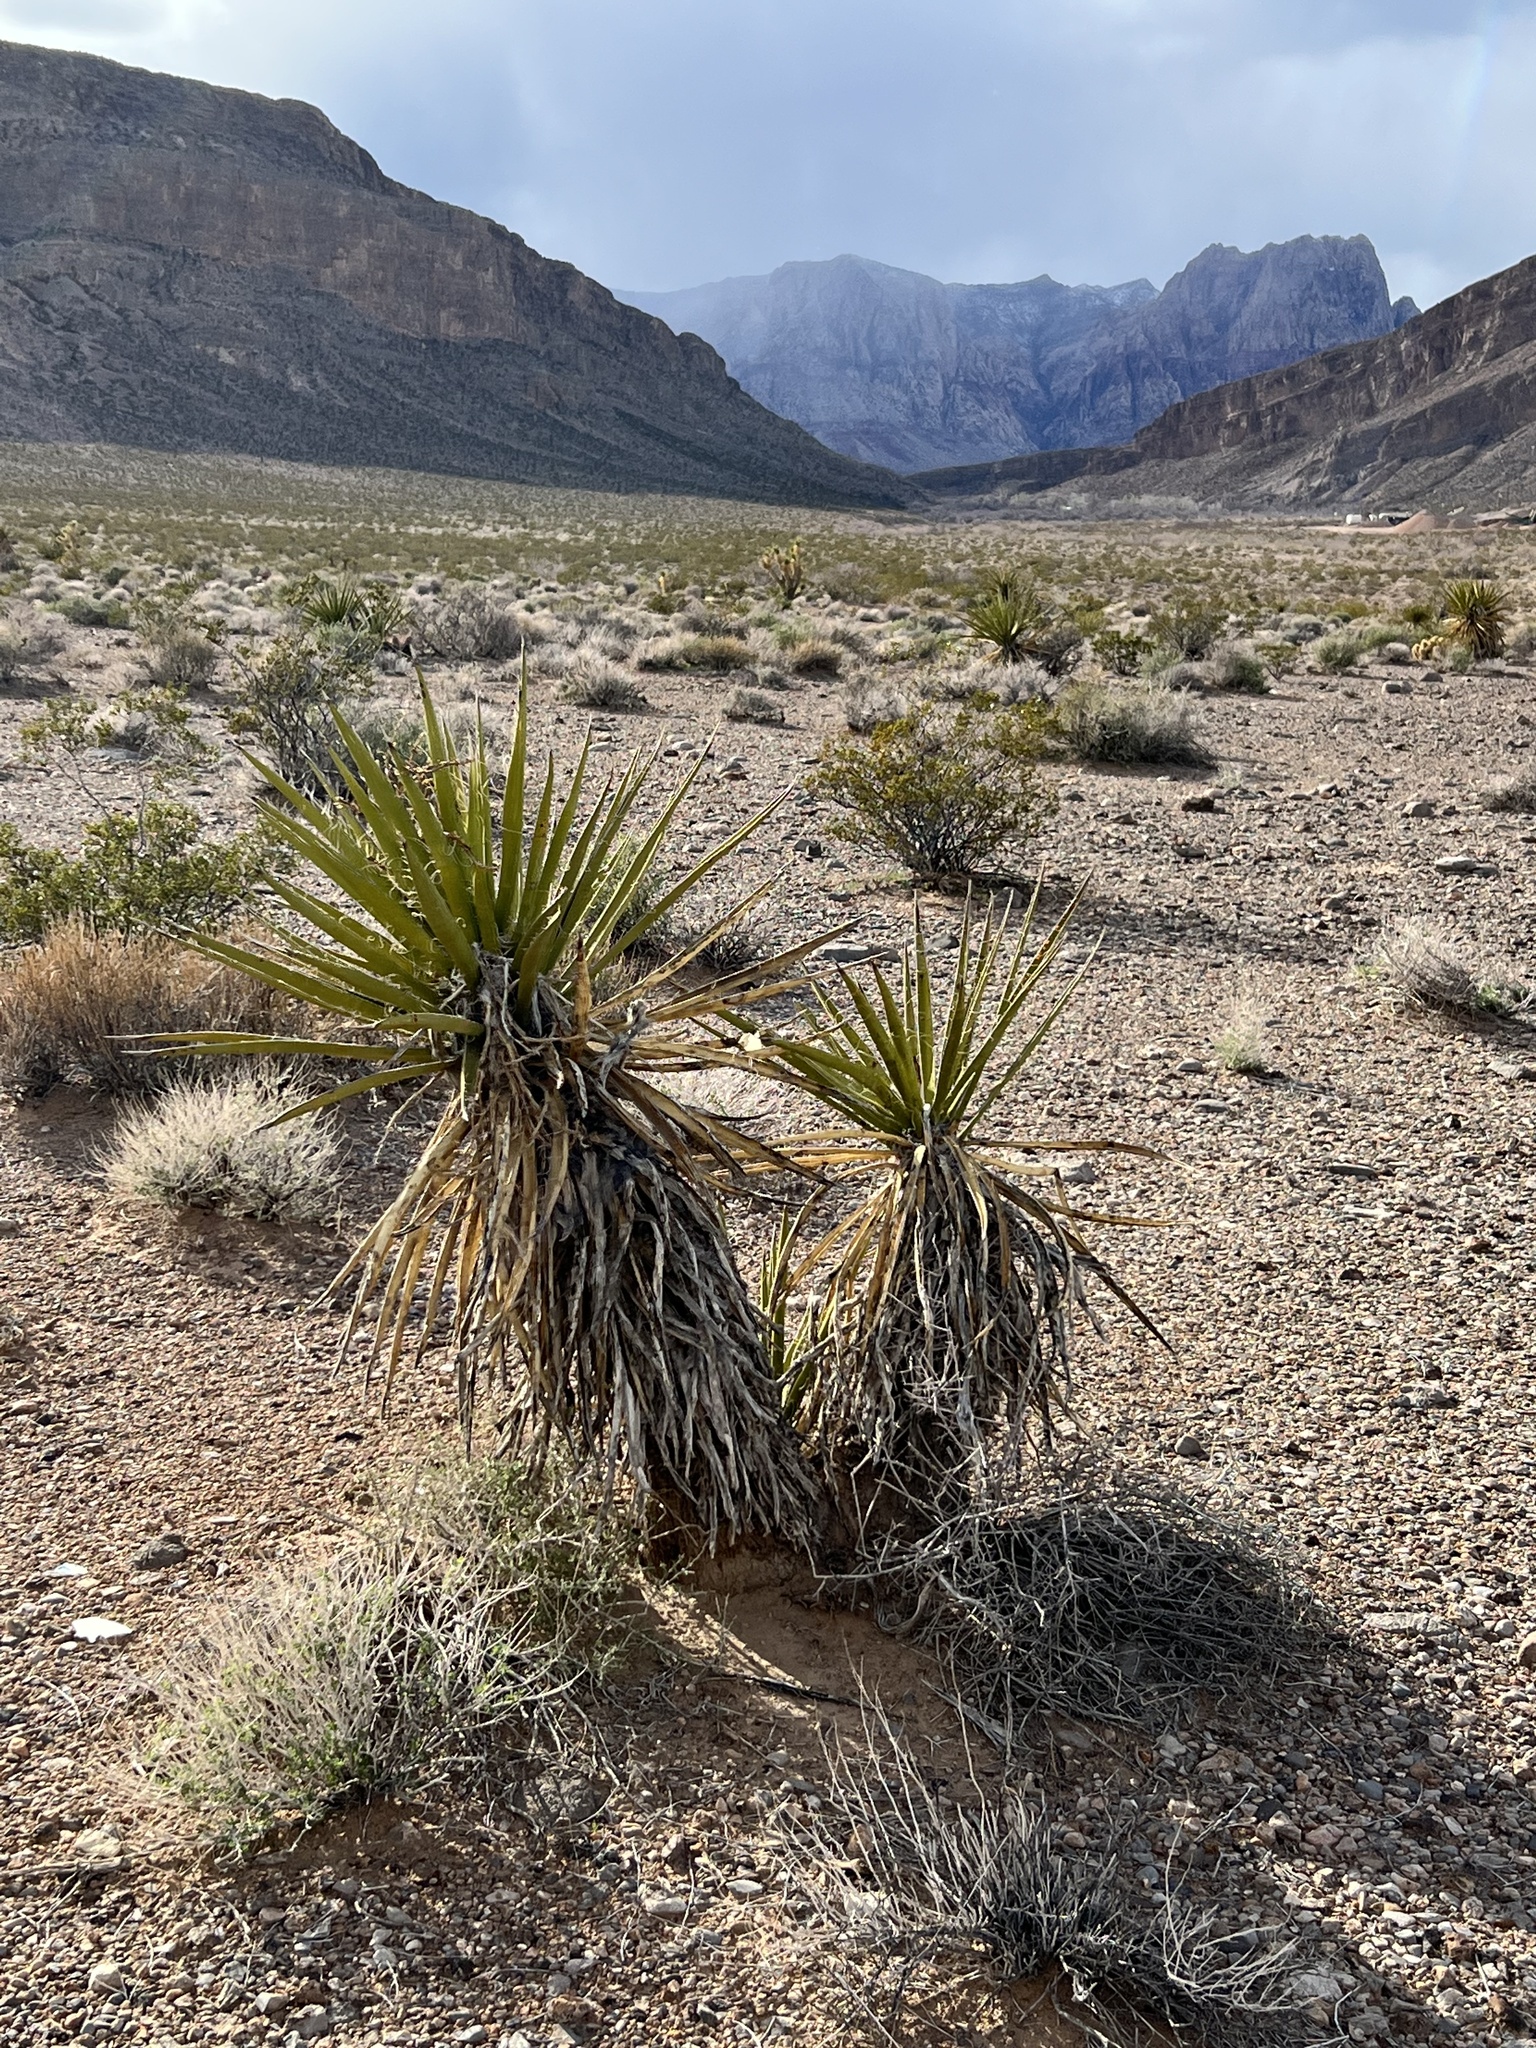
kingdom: Plantae
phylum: Tracheophyta
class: Liliopsida
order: Asparagales
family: Asparagaceae
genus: Yucca
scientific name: Yucca schidigera
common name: Mojave yucca
